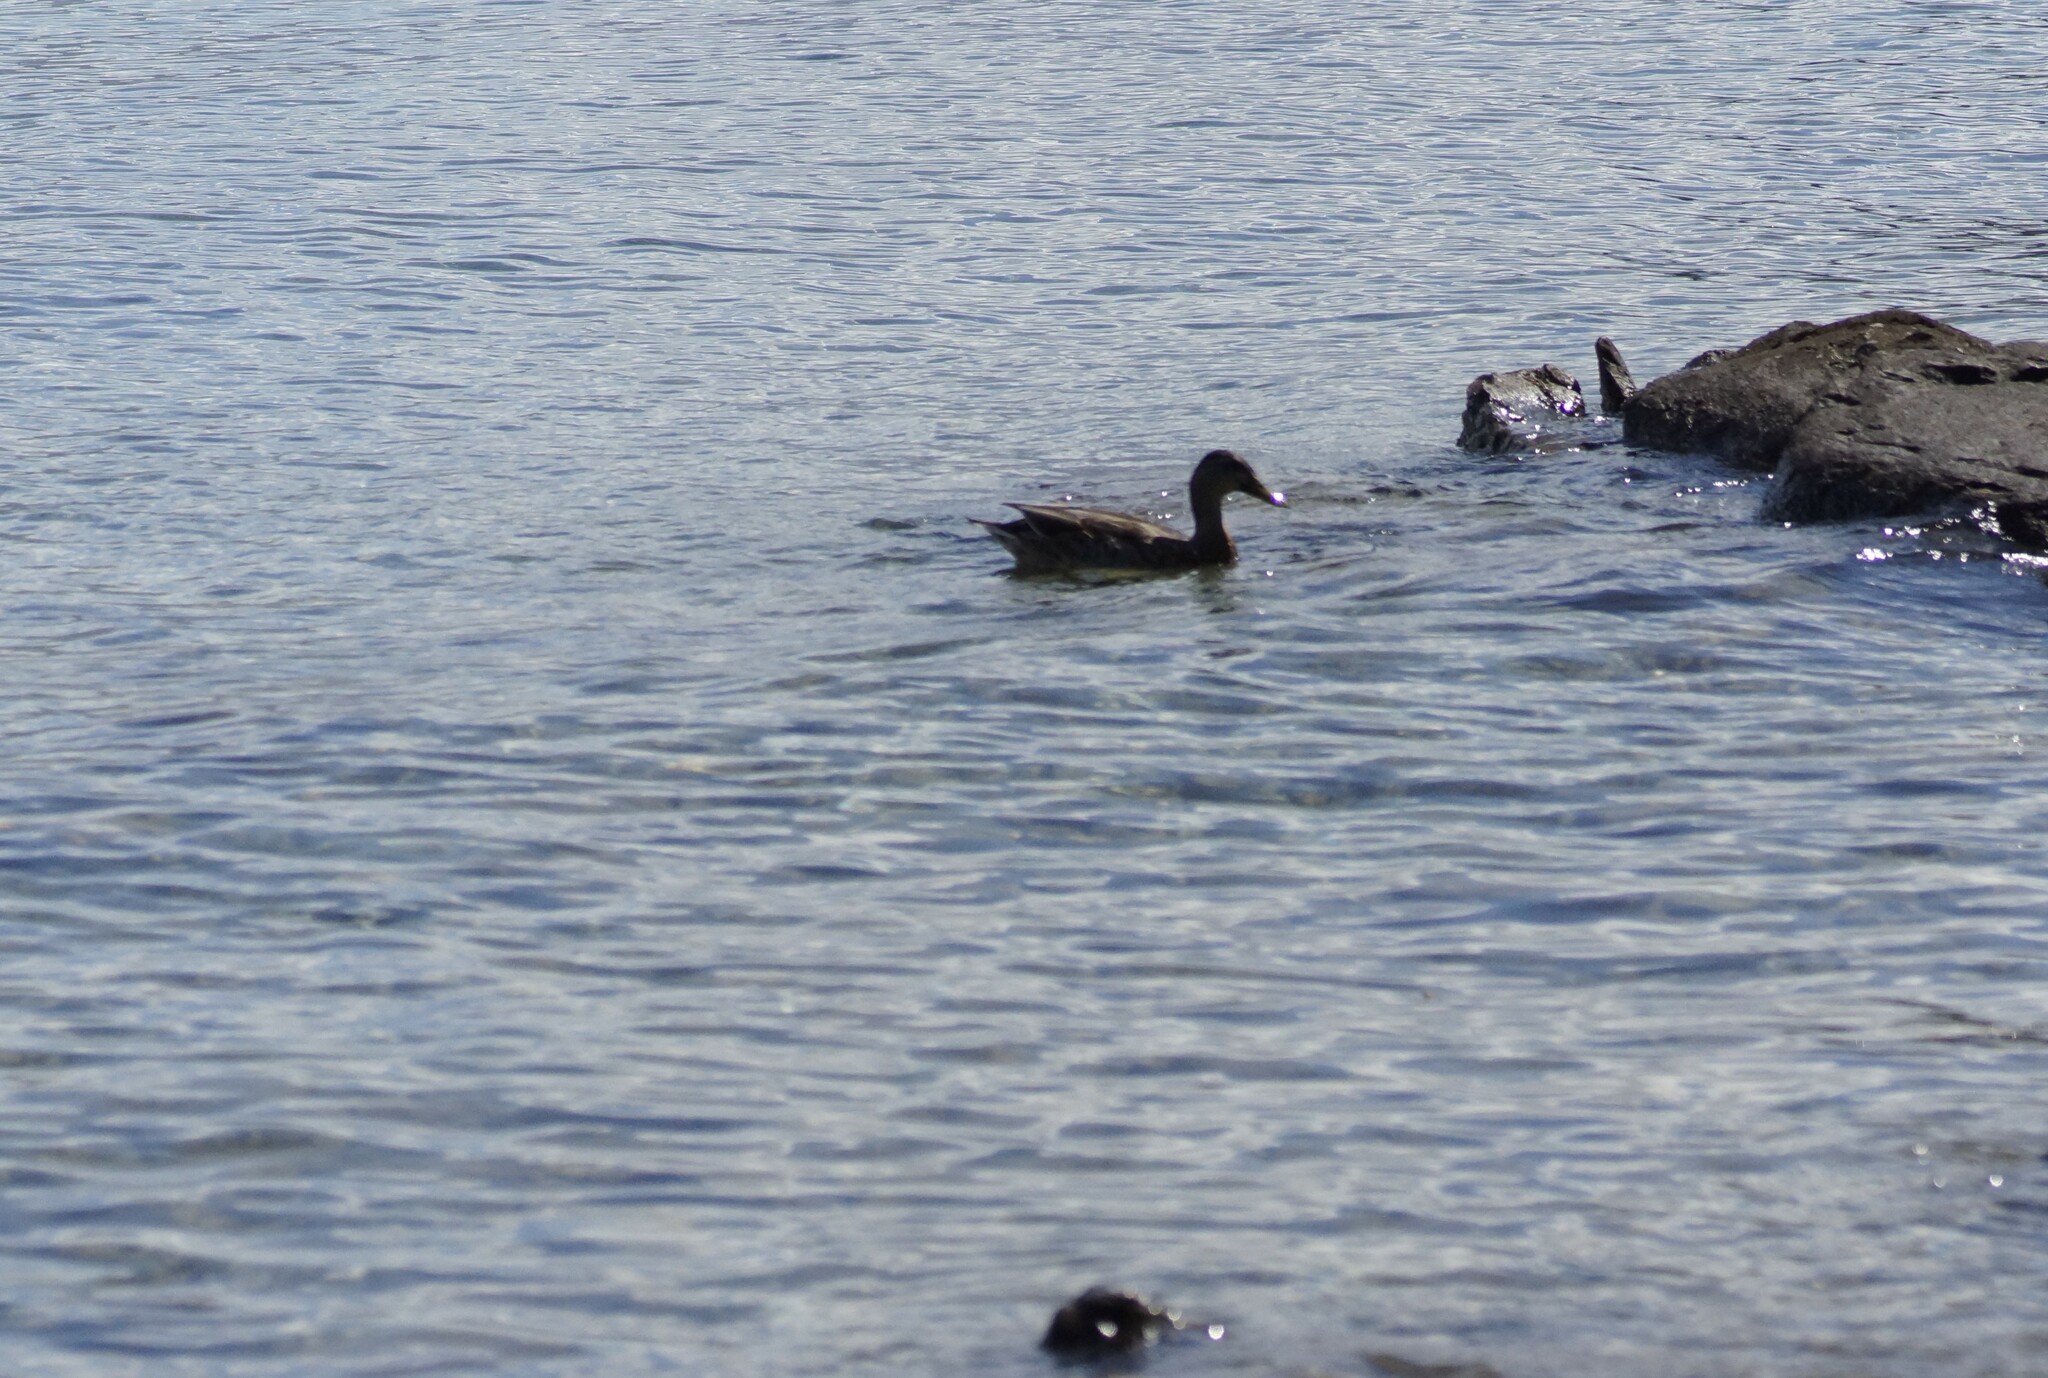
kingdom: Animalia
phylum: Chordata
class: Aves
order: Anseriformes
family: Anatidae
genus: Anas
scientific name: Anas platyrhynchos
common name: Mallard
